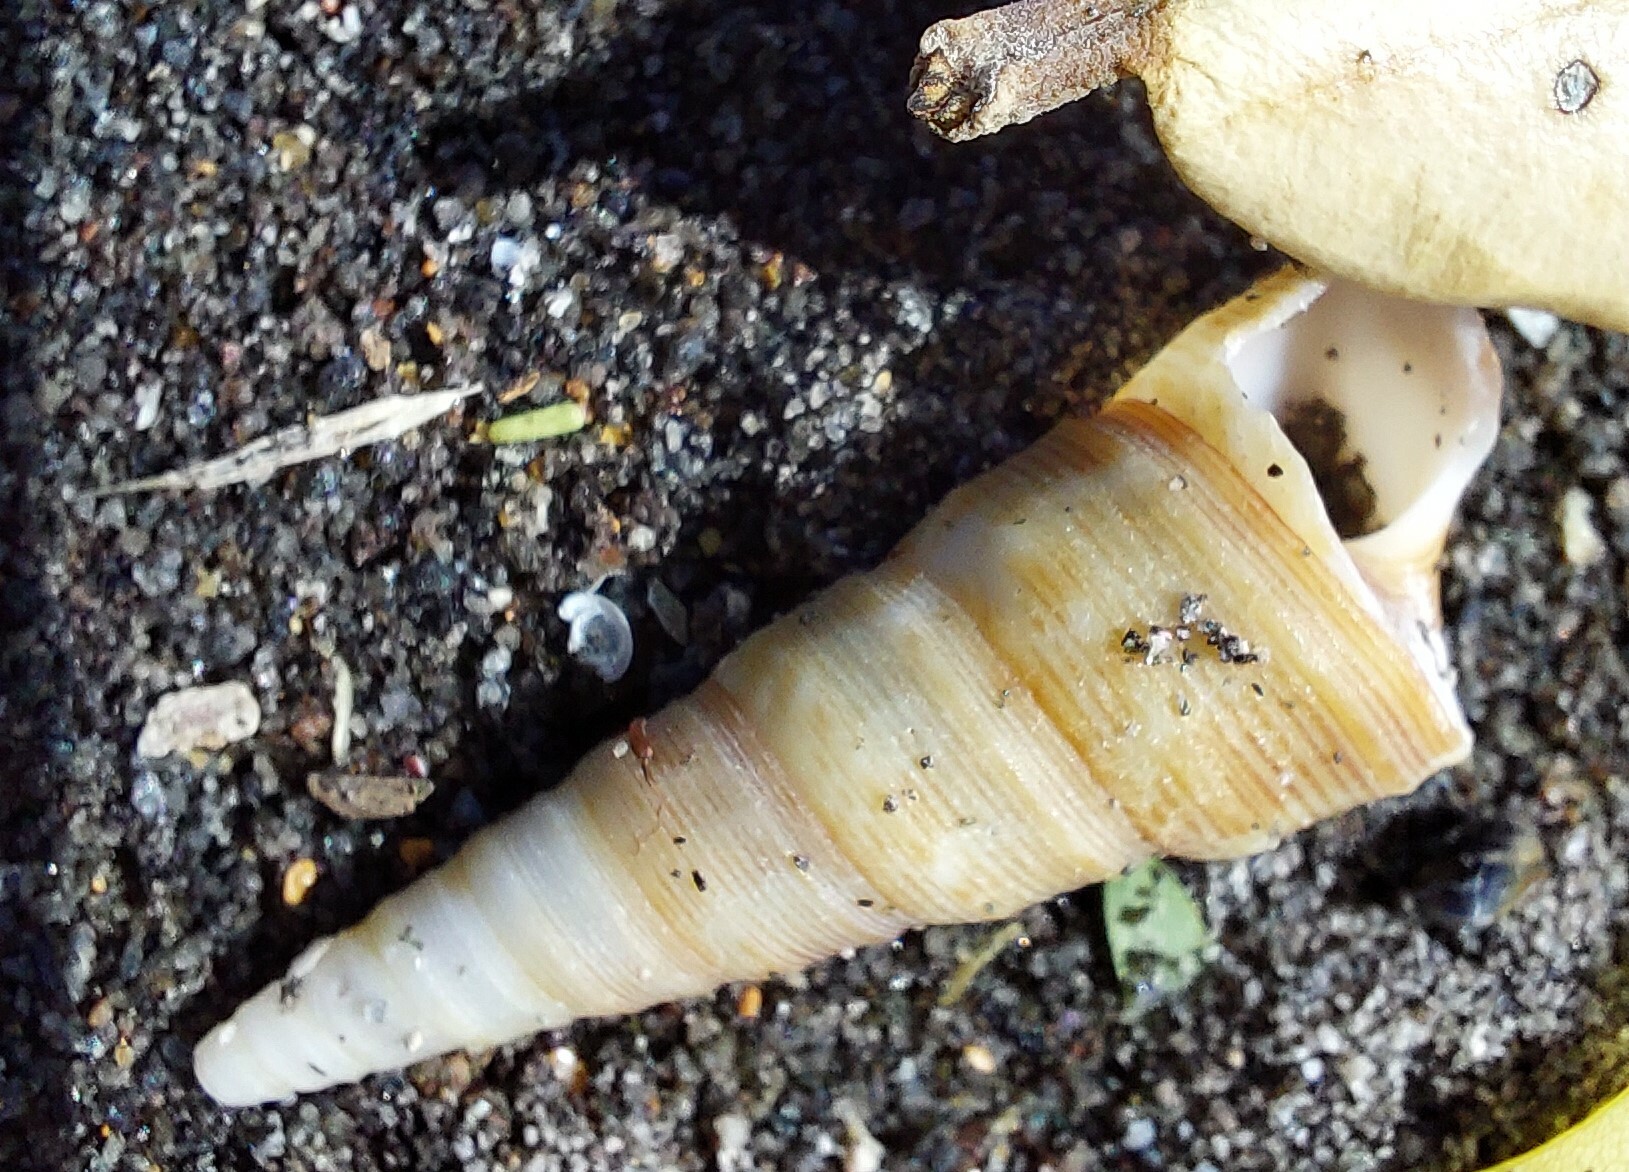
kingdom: Animalia
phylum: Mollusca
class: Gastropoda
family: Turritellidae
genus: Maoricolpus
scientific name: Maoricolpus roseus
